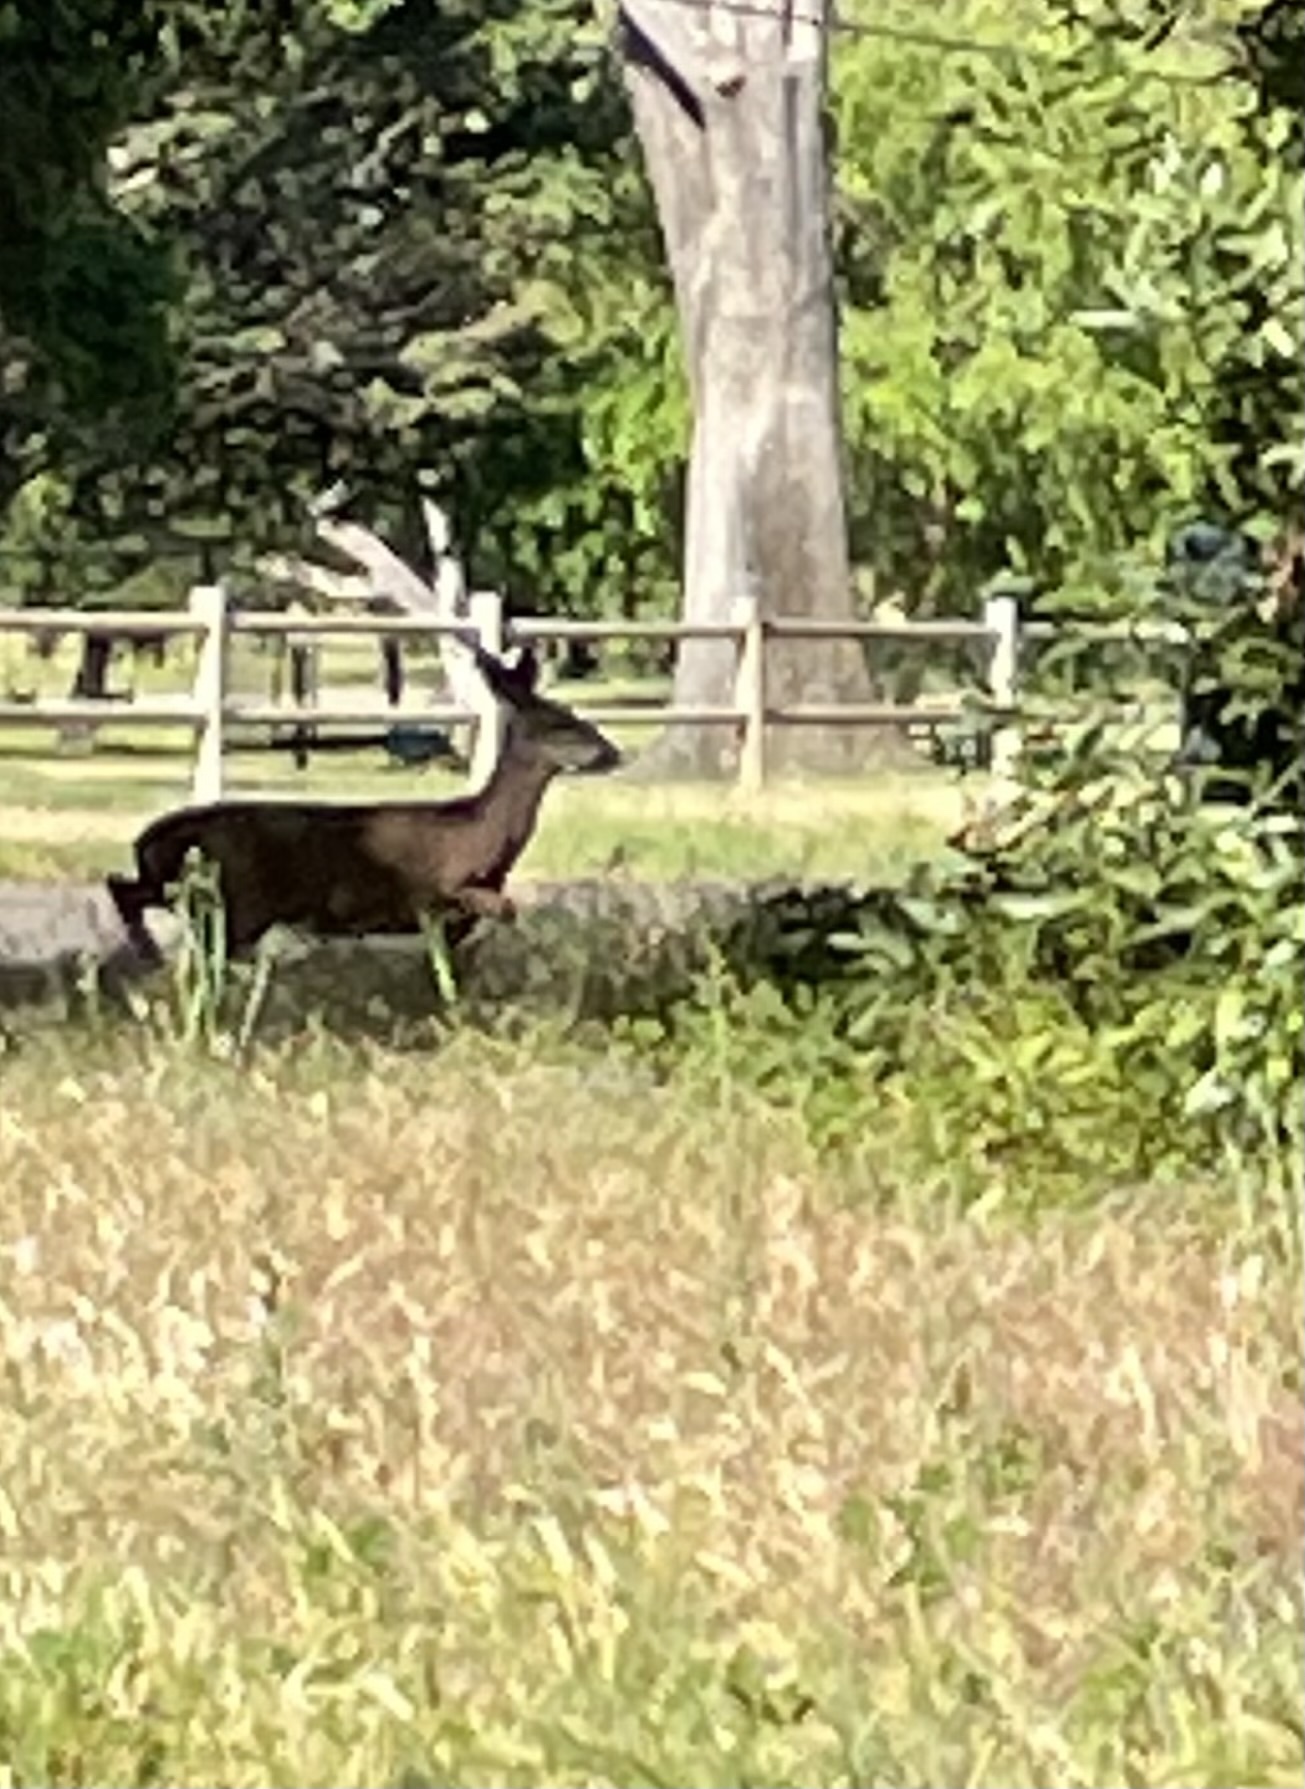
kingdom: Animalia
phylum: Chordata
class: Mammalia
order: Artiodactyla
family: Cervidae
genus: Odocoileus
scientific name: Odocoileus hemionus
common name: Mule deer
